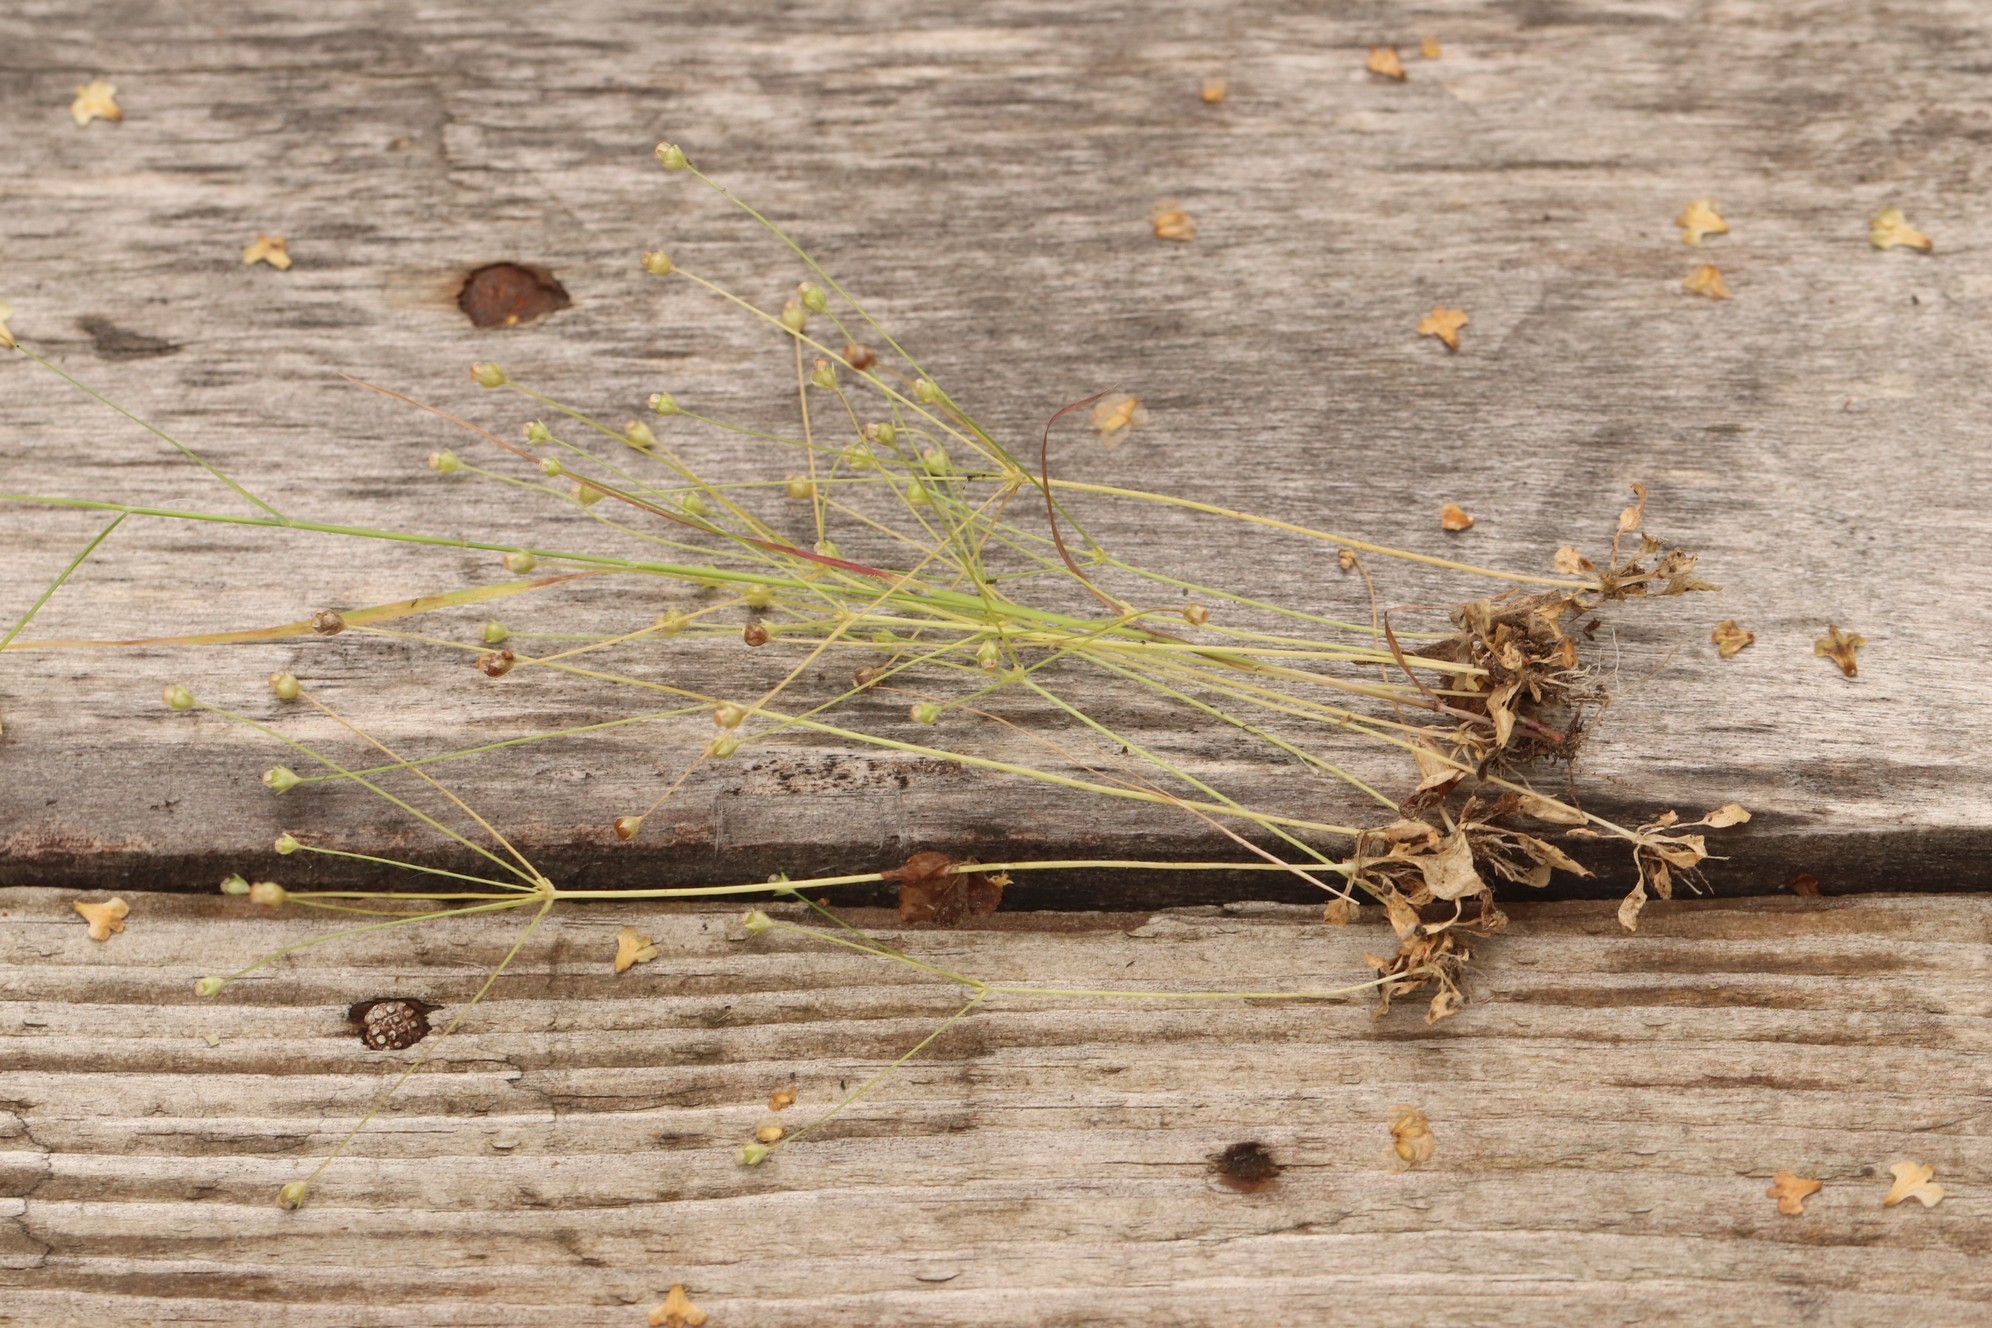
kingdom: Plantae
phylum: Tracheophyta
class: Magnoliopsida
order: Ericales
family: Primulaceae
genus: Androsace
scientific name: Androsace filiformis
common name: Filiform rock jasmine
